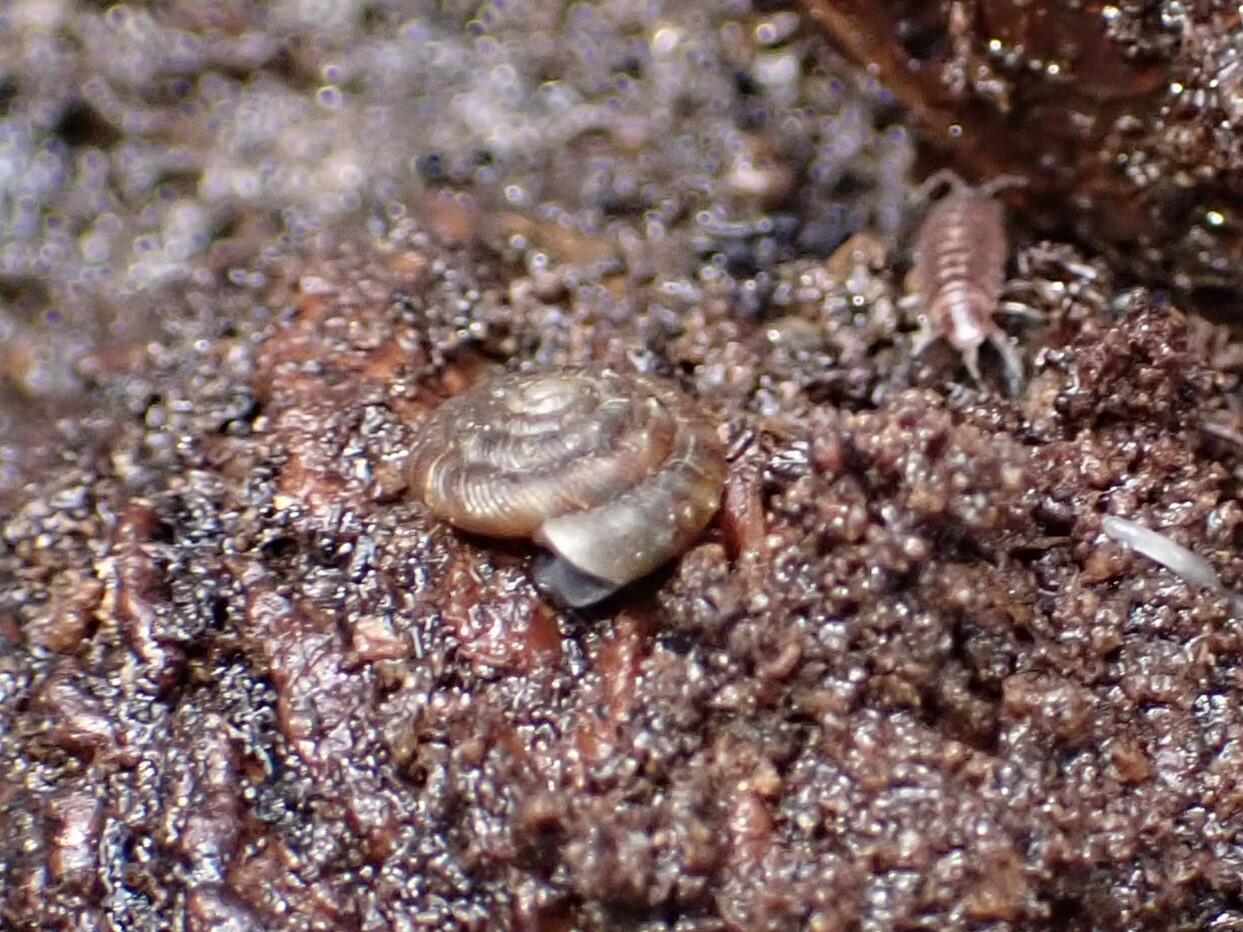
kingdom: Animalia
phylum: Mollusca
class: Gastropoda
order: Stylommatophora
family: Discidae
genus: Discus
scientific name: Discus rotundatus
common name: Rounded snail
